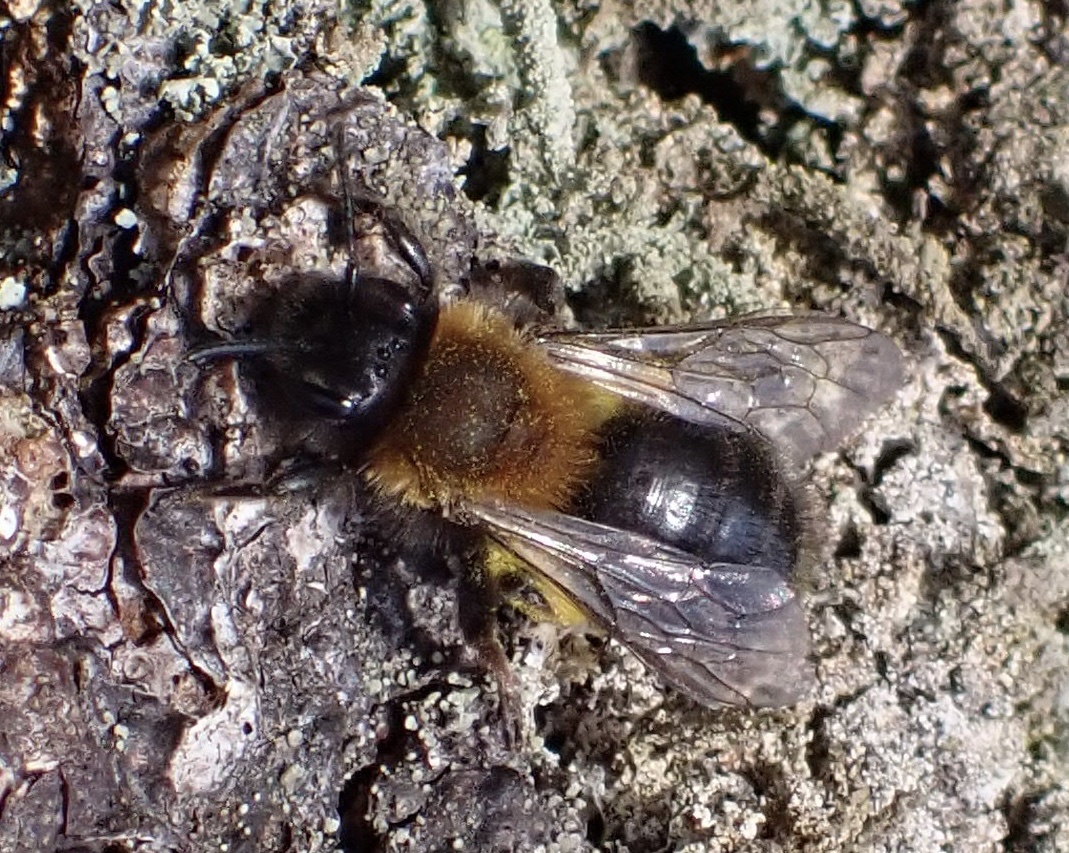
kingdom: Animalia
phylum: Arthropoda
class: Insecta
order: Hymenoptera
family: Andrenidae
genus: Andrena
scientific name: Andrena clarkella
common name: Clarke's mining bee
